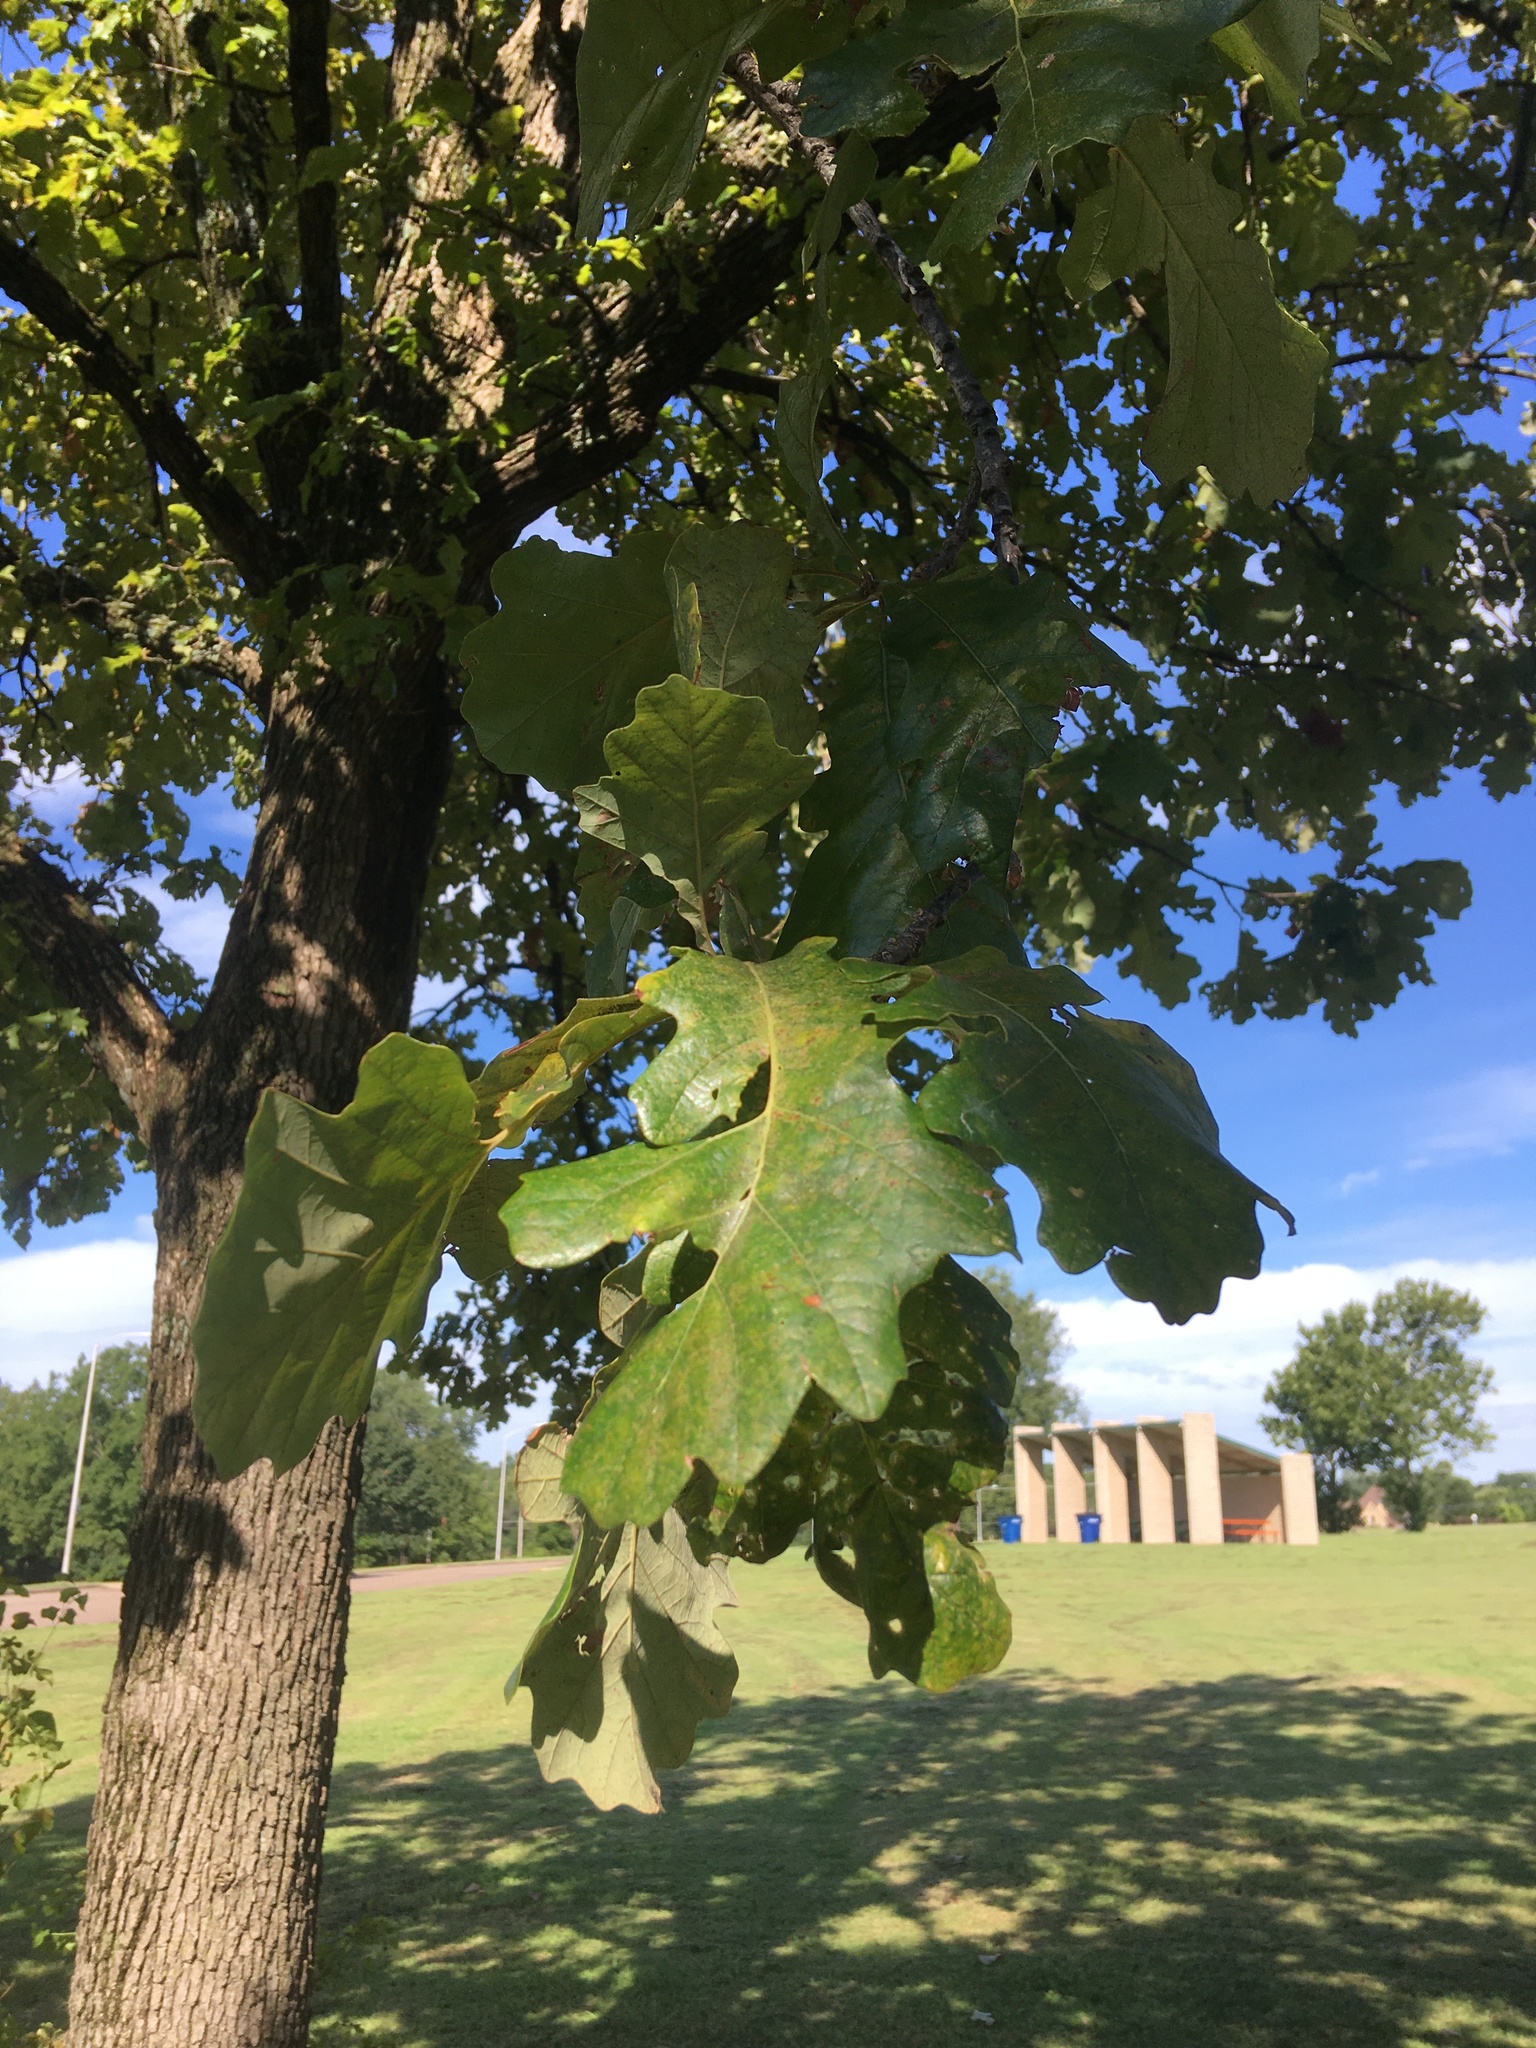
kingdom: Plantae
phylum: Tracheophyta
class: Magnoliopsida
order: Fagales
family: Fagaceae
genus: Quercus
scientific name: Quercus macrocarpa
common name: Bur oak
